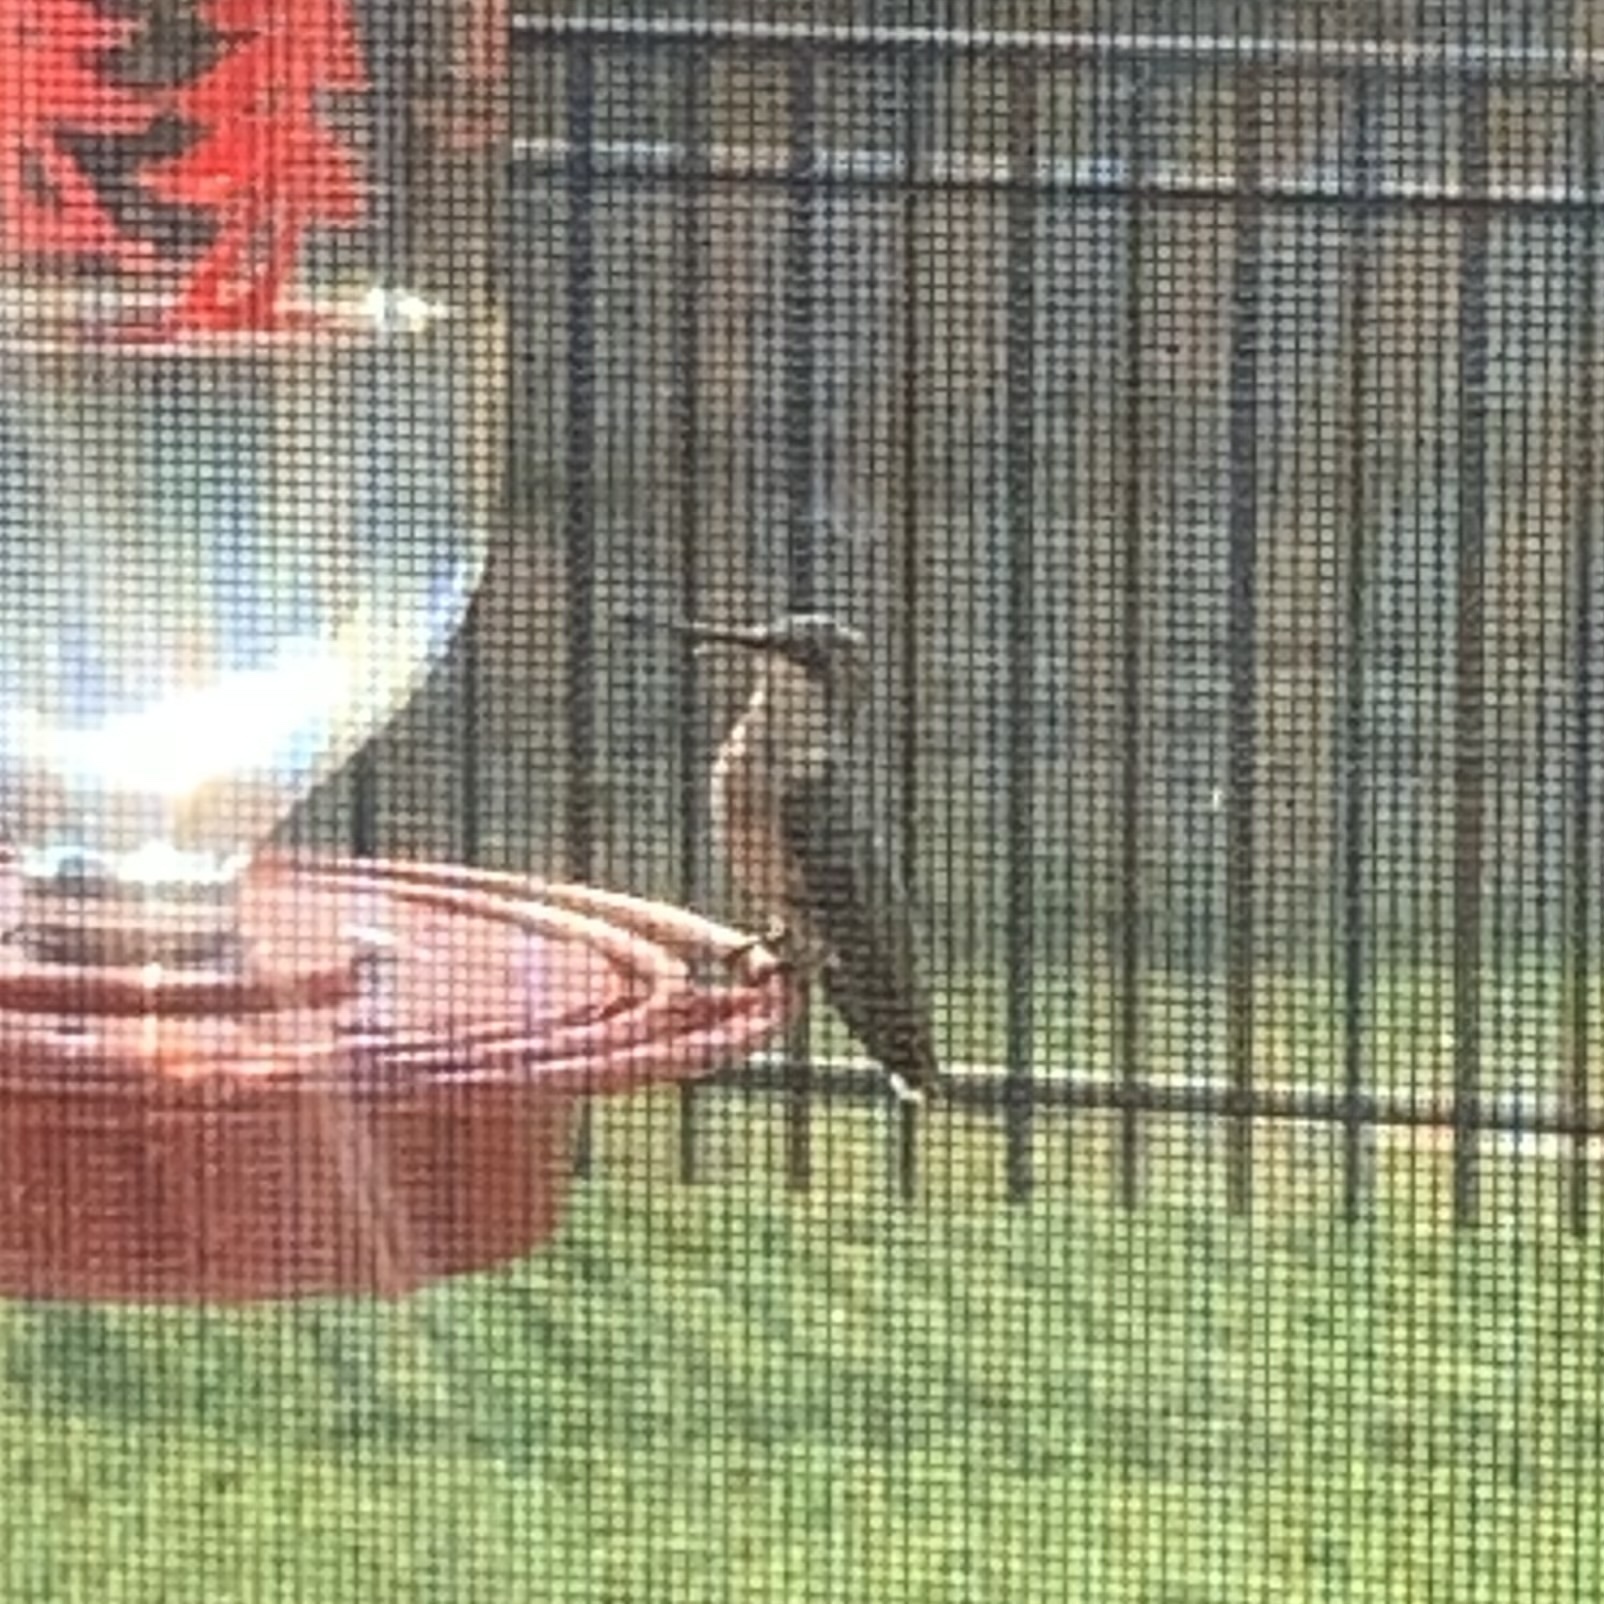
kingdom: Animalia
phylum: Chordata
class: Aves
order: Apodiformes
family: Trochilidae
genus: Archilochus
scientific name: Archilochus colubris
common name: Ruby-throated hummingbird
